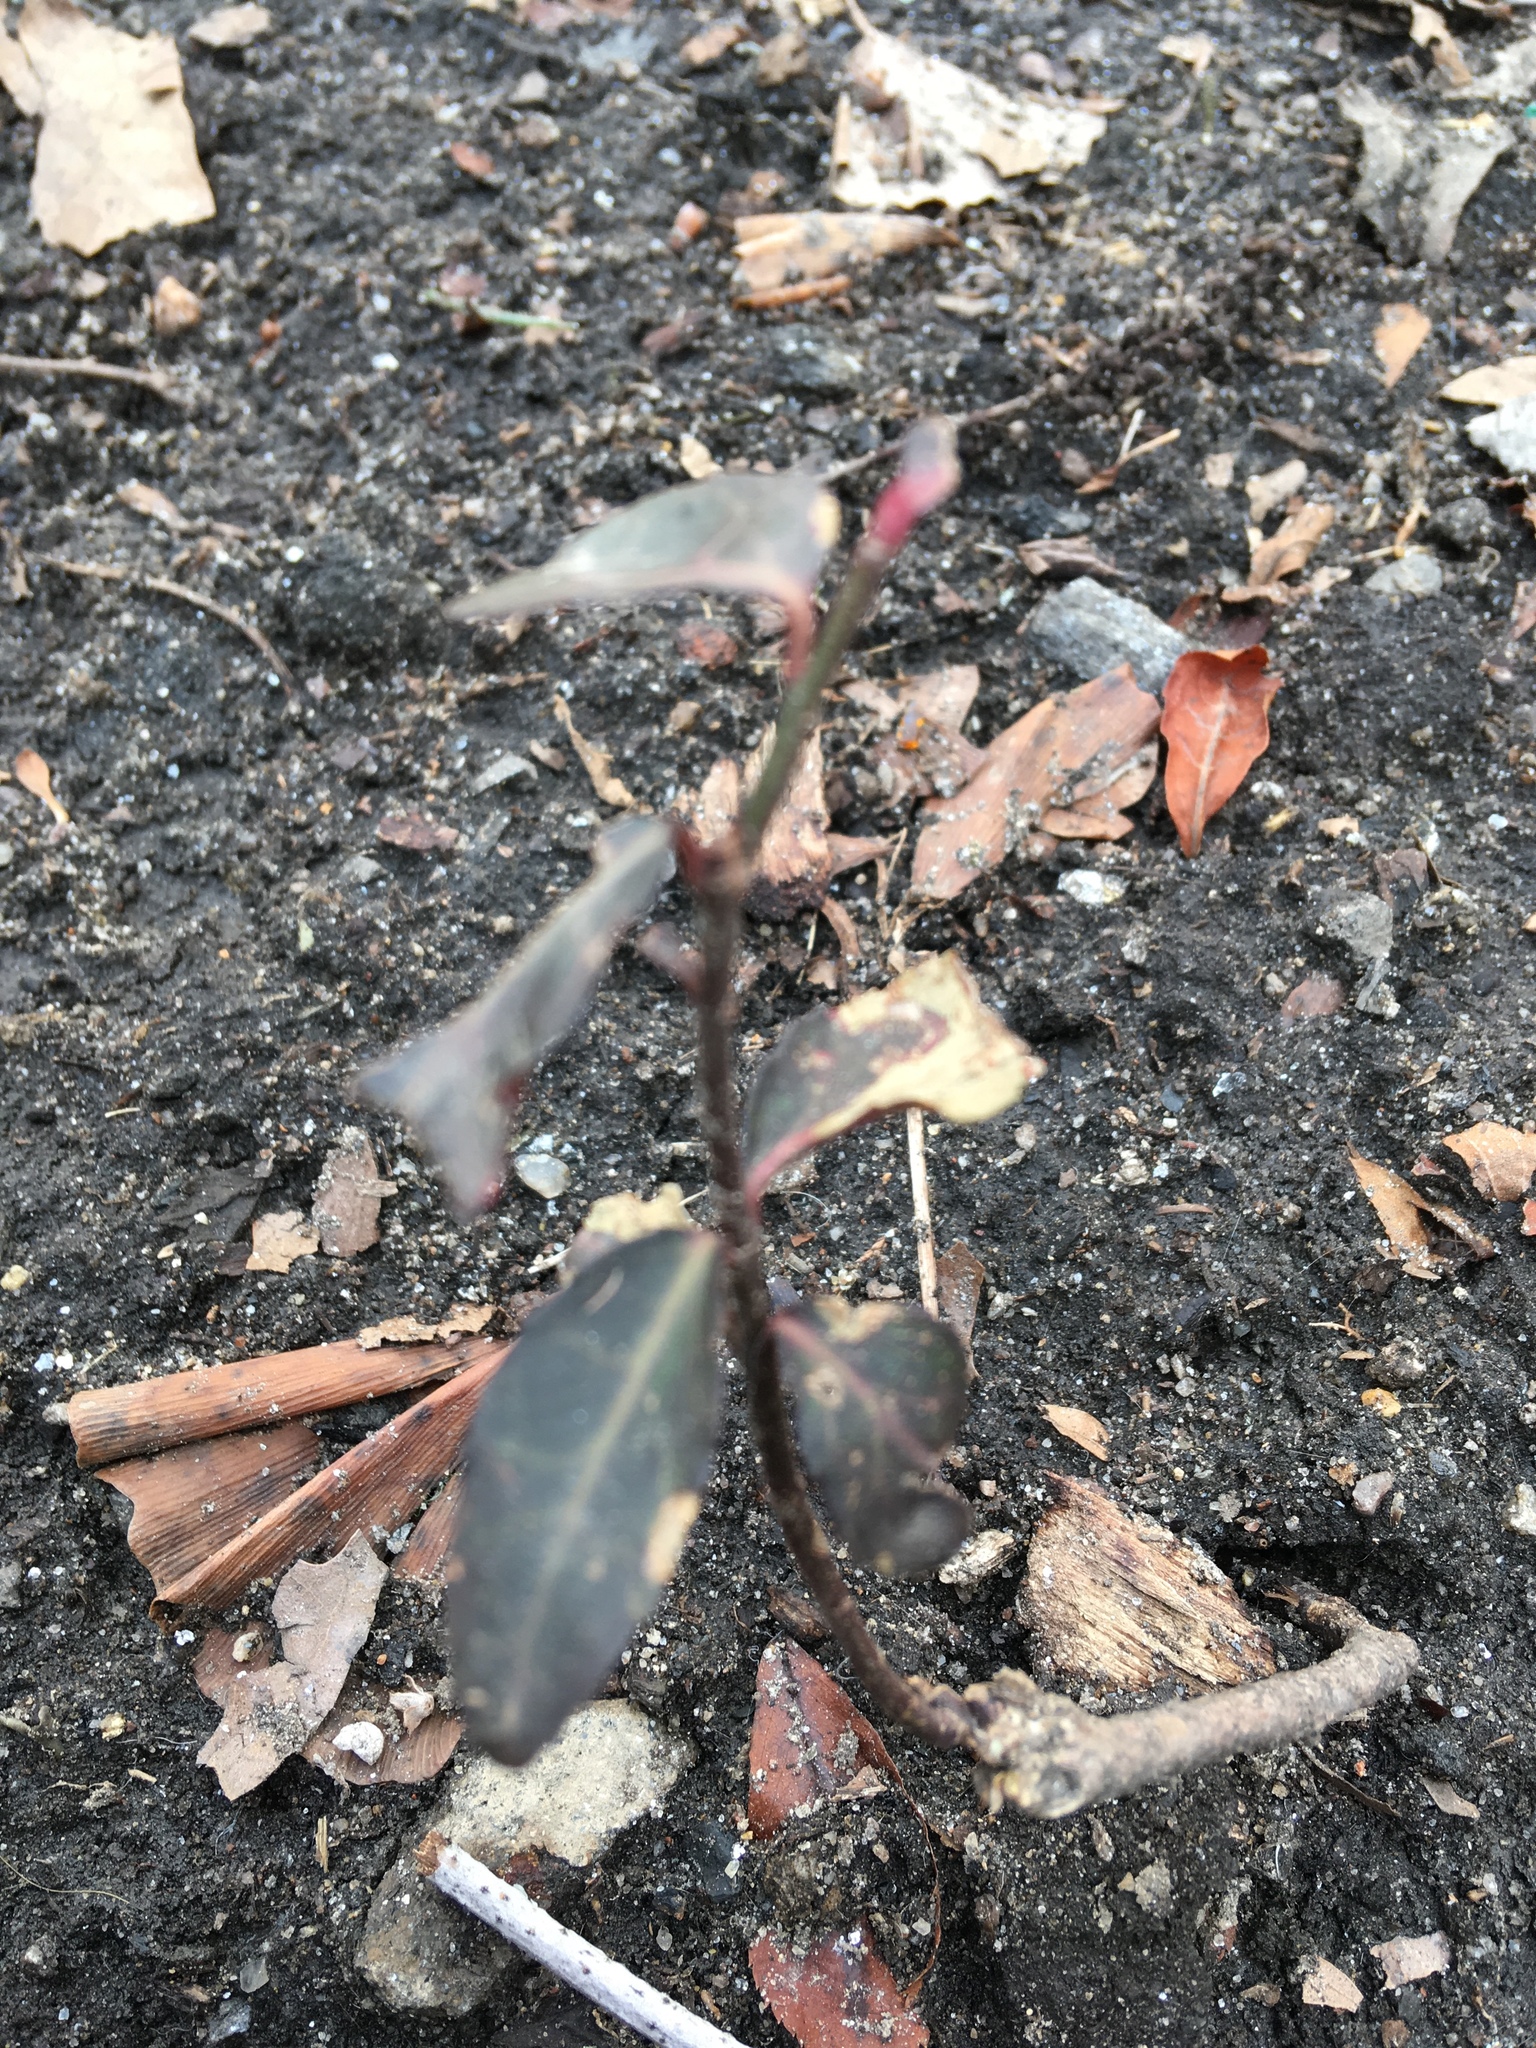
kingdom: Plantae
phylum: Tracheophyta
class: Magnoliopsida
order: Celastrales
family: Celastraceae
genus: Euonymus
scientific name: Euonymus fortunei
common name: Climbing euonymus
